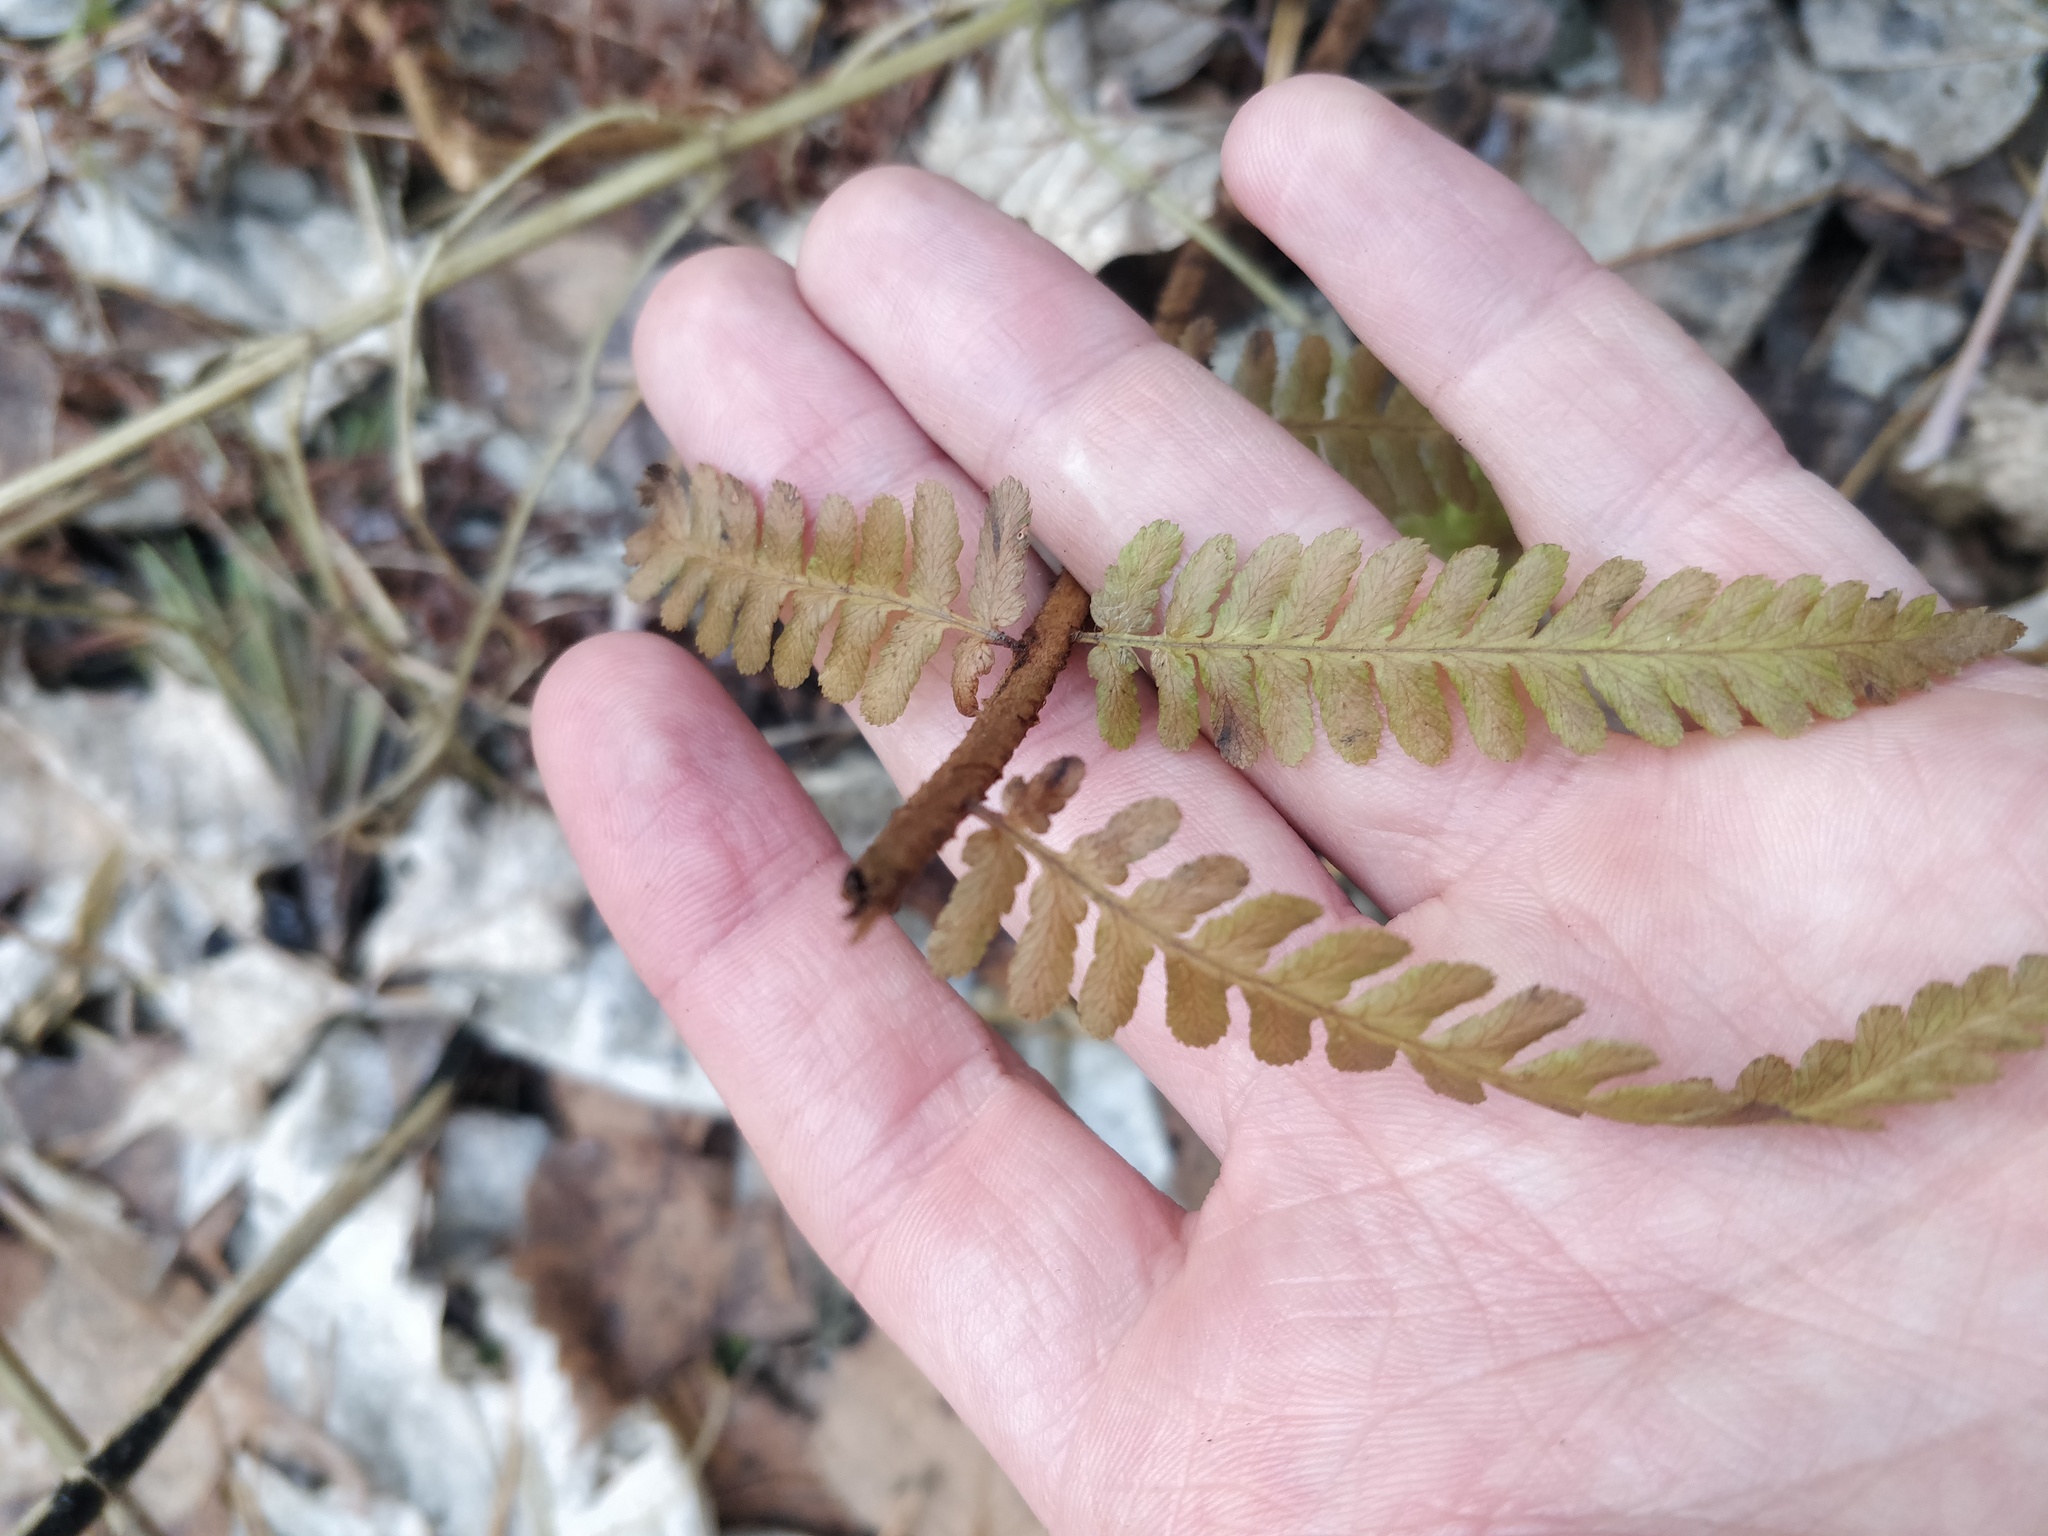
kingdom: Plantae
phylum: Tracheophyta
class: Polypodiopsida
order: Polypodiales
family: Dryopteridaceae
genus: Dryopteris
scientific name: Dryopteris filix-mas
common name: Male fern
